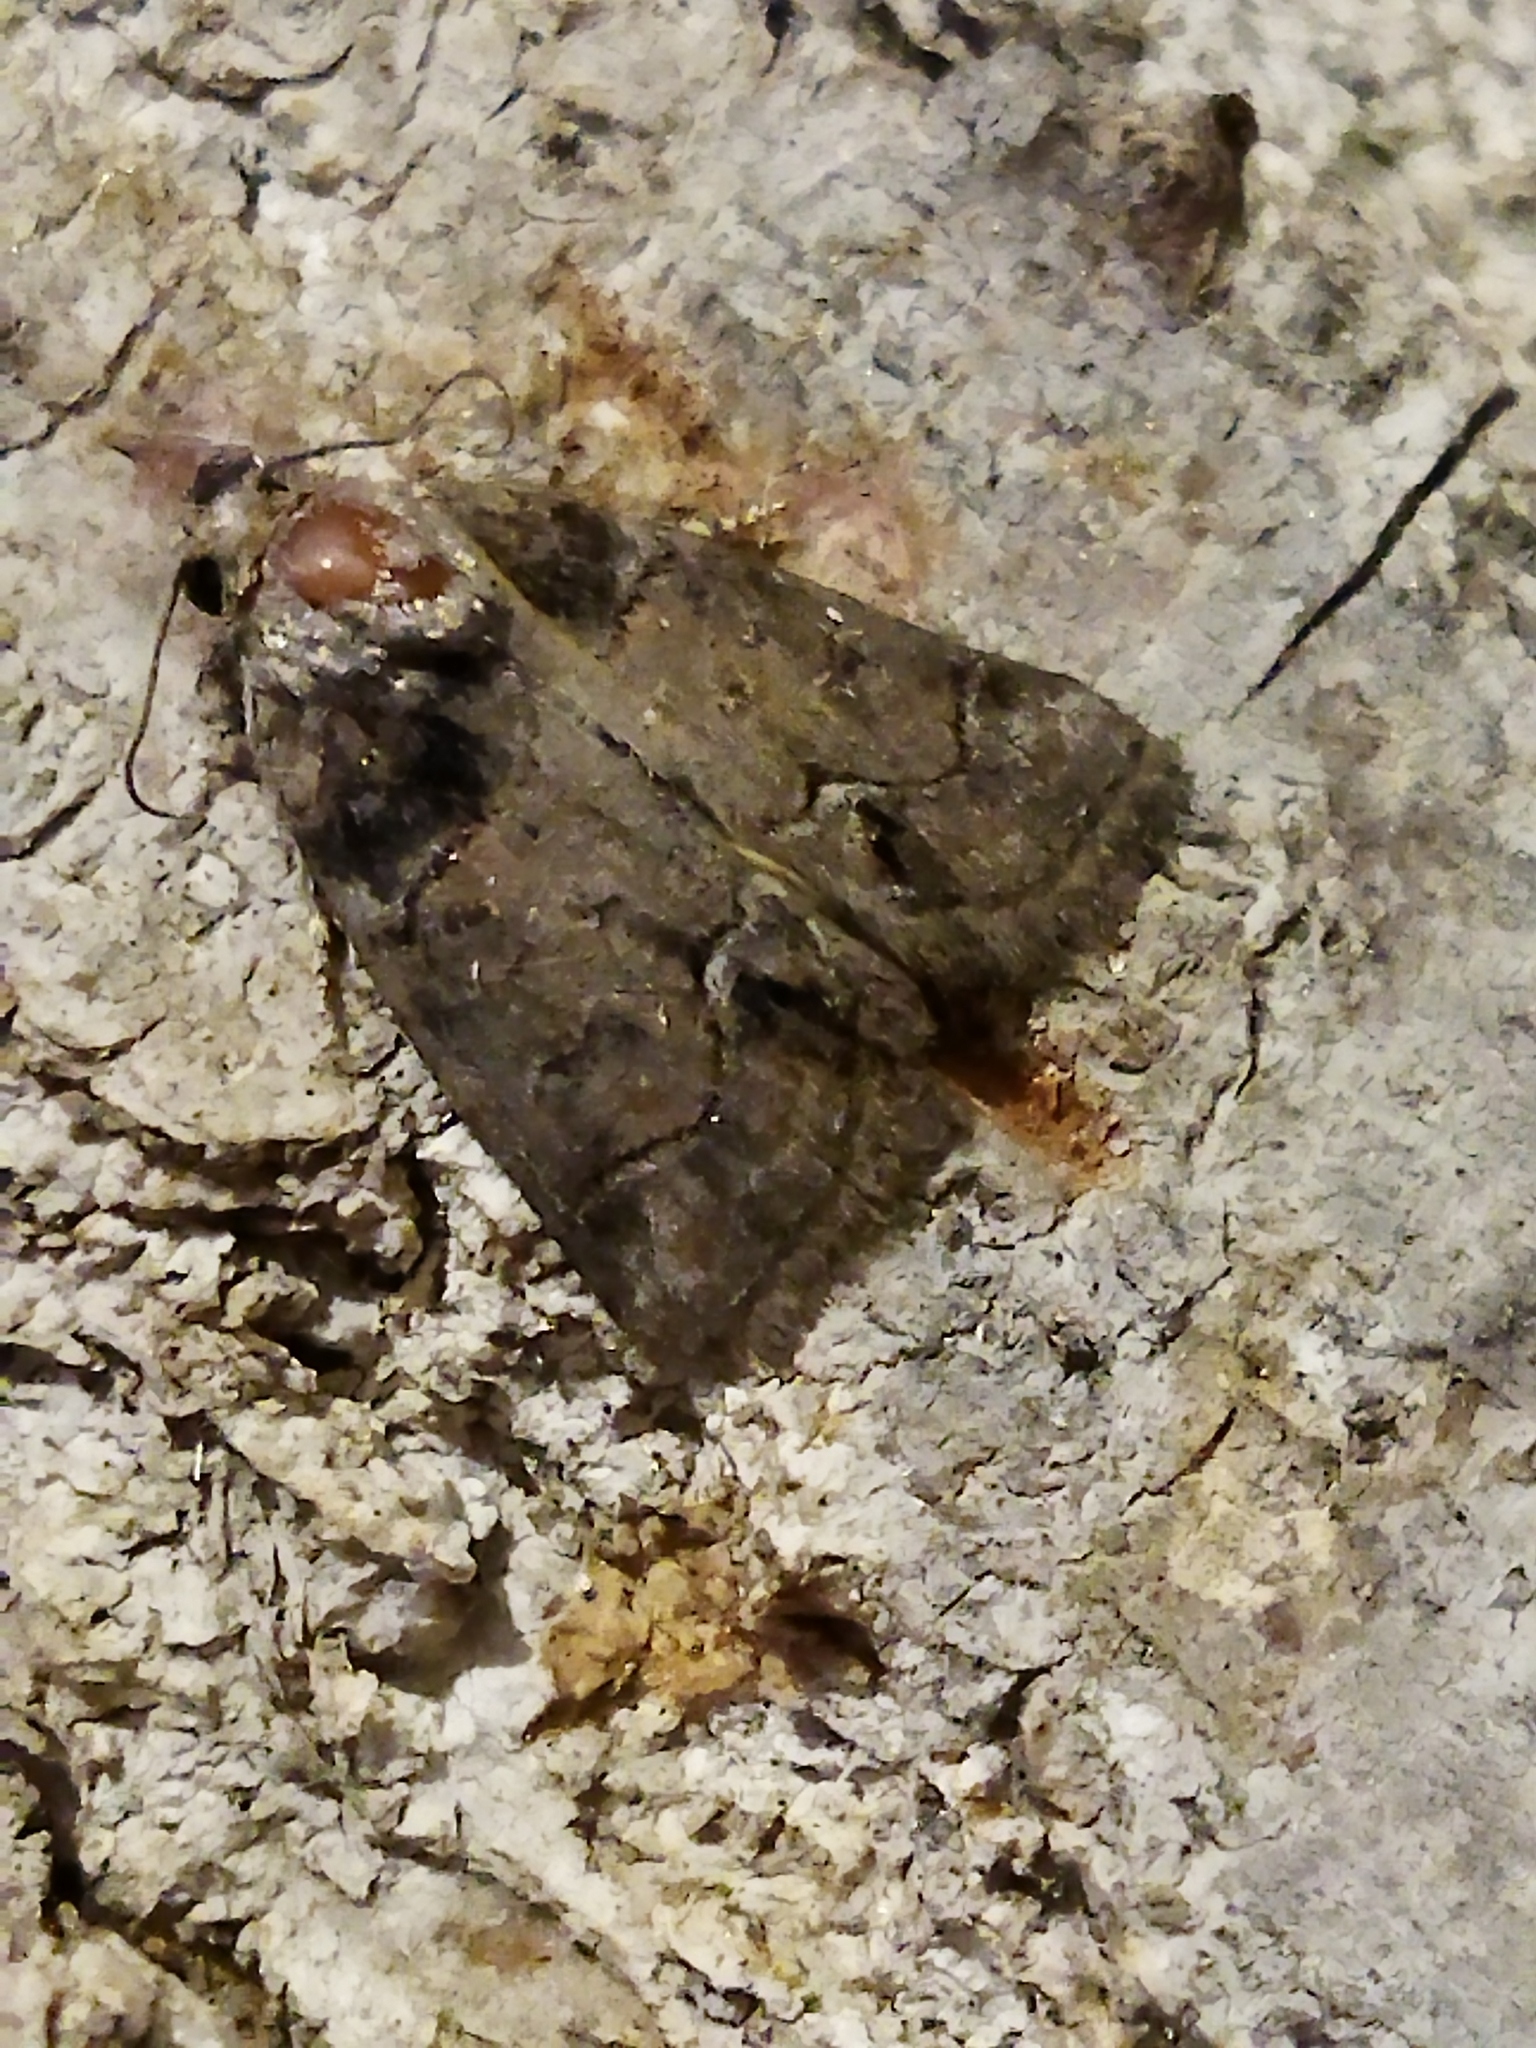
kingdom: Animalia
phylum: Arthropoda
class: Insecta
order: Lepidoptera
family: Noctuidae
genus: Bryophila
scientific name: Bryophila tephrocharis
